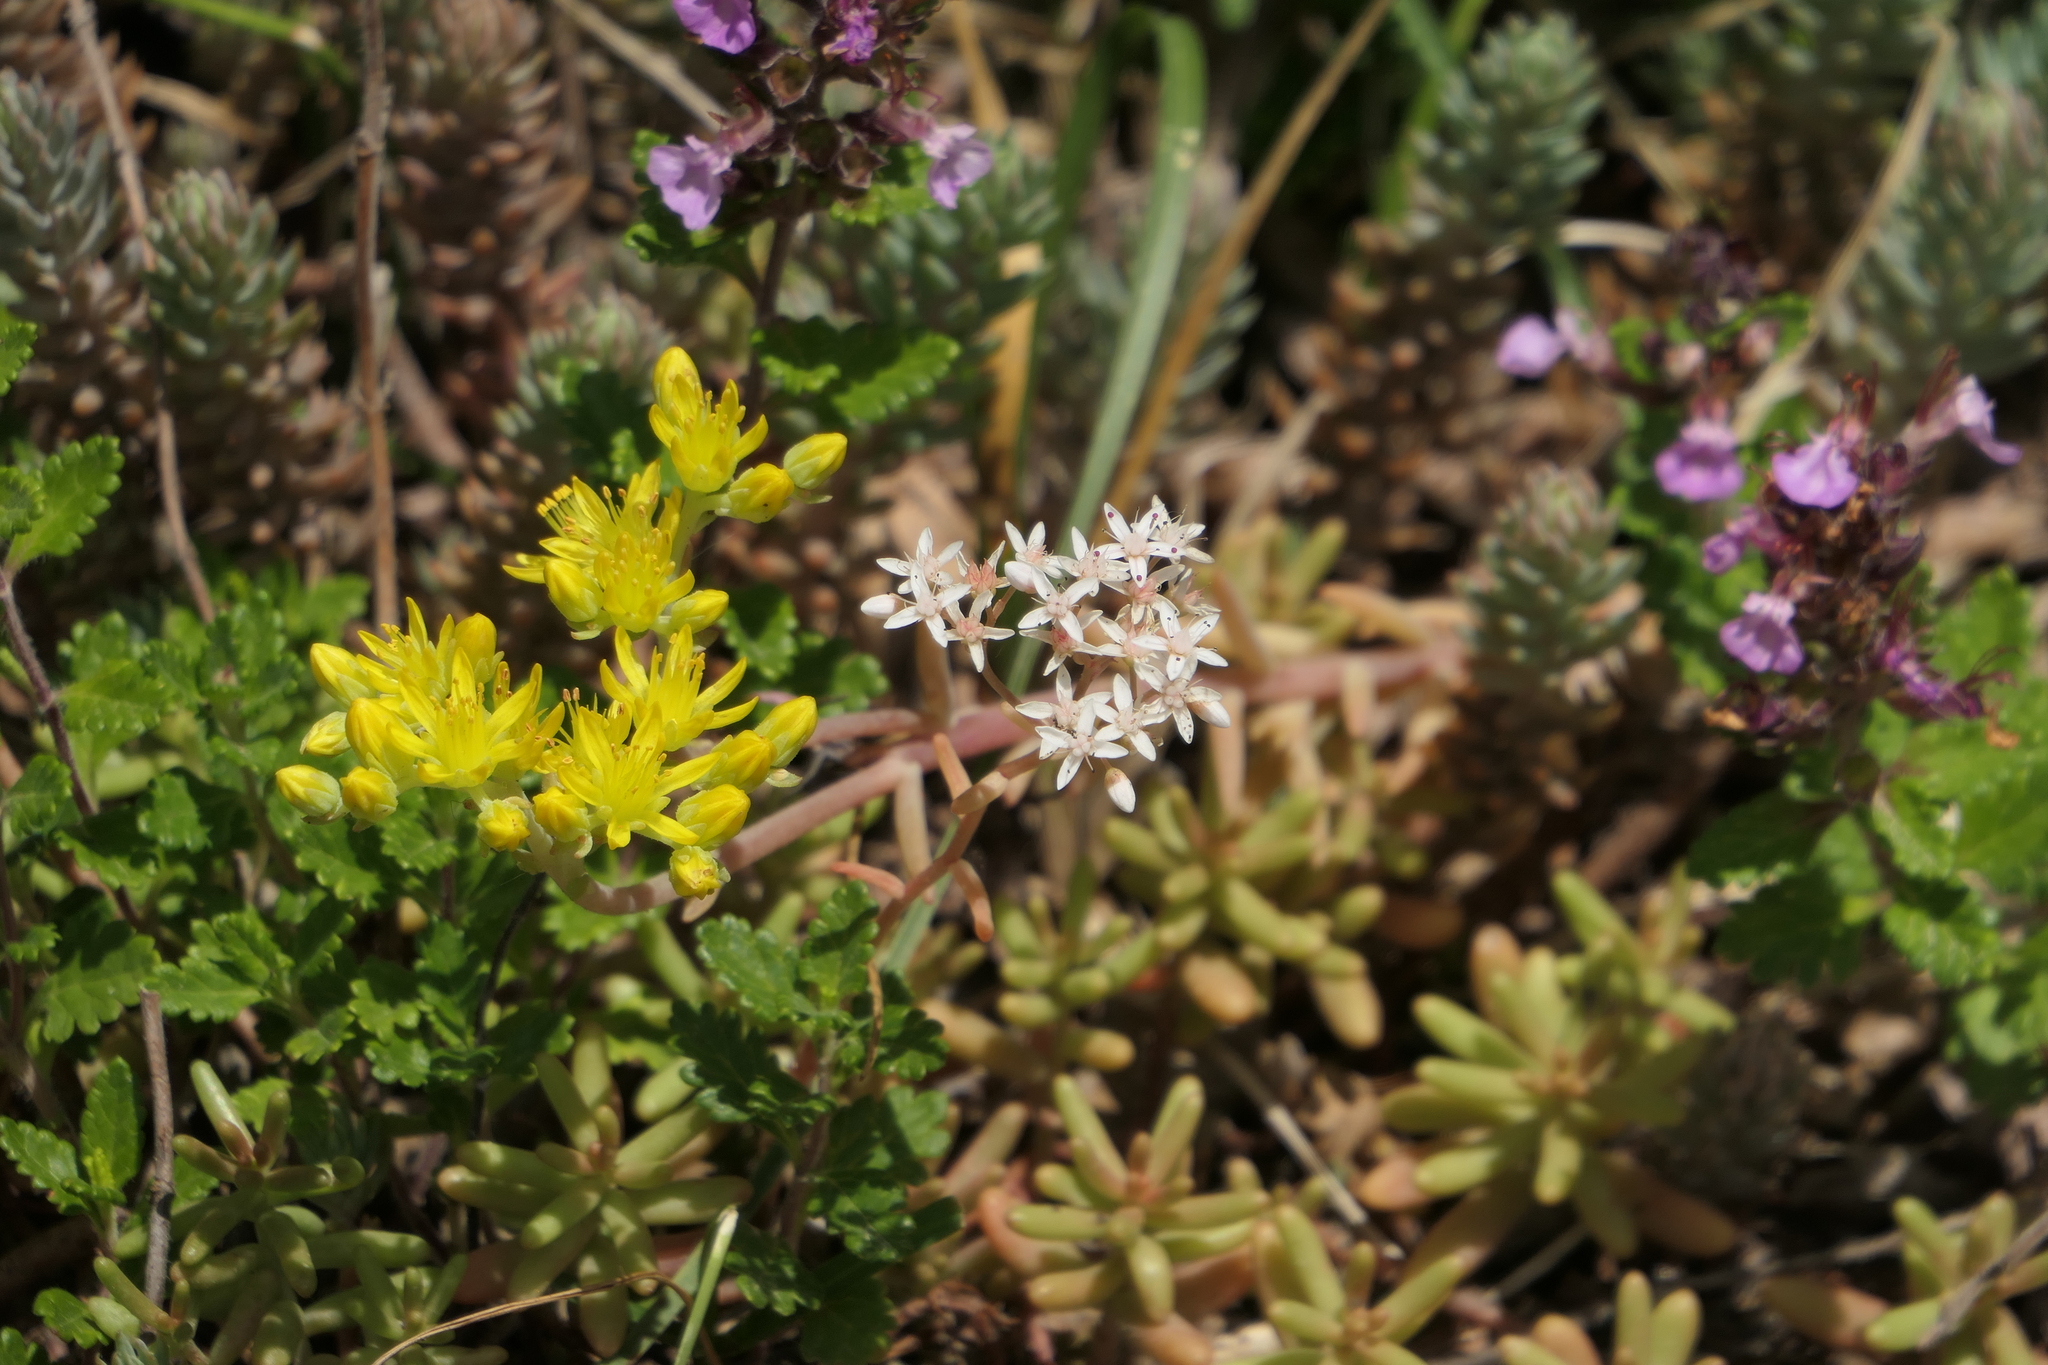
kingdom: Plantae
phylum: Tracheophyta
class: Magnoliopsida
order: Saxifragales
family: Crassulaceae
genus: Sedum
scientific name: Sedum album
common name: White stonecrop
